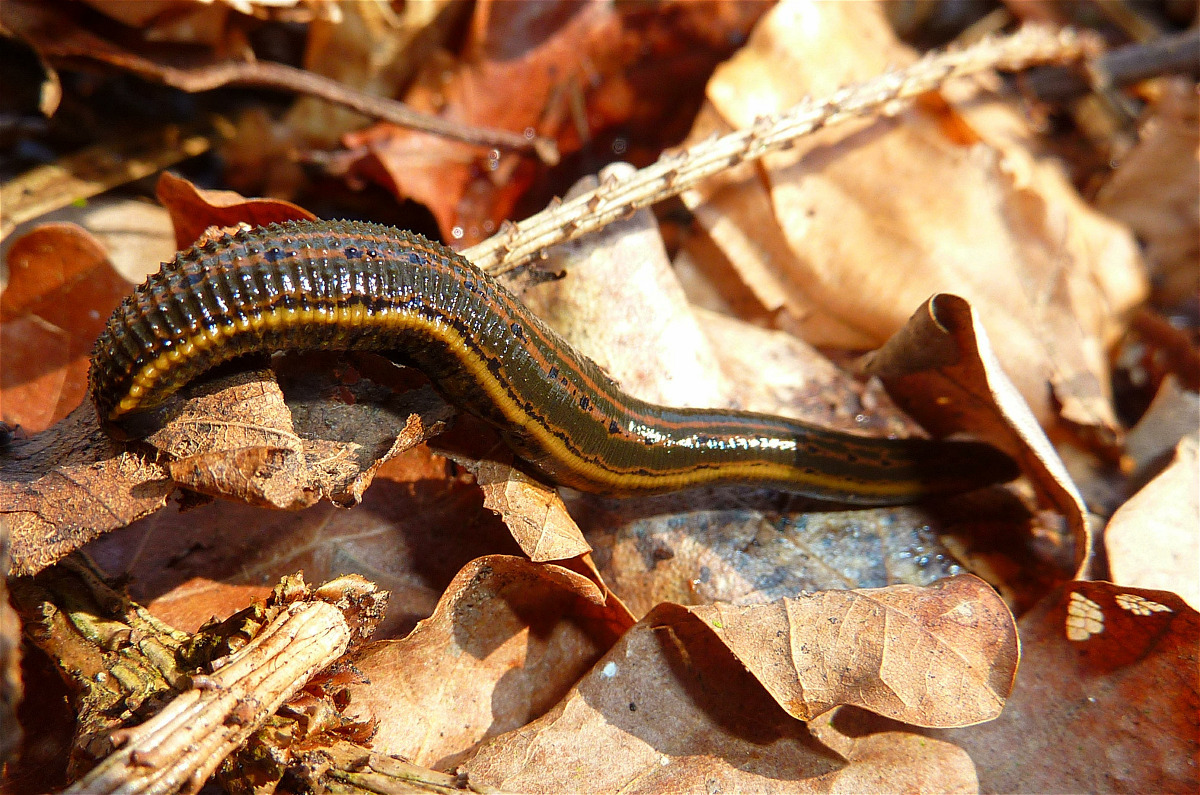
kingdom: Animalia
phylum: Annelida
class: Clitellata
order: Arhynchobdellida
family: Hirudinidae
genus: Hirudo
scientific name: Hirudo medicinalis
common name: Medicinal leech
